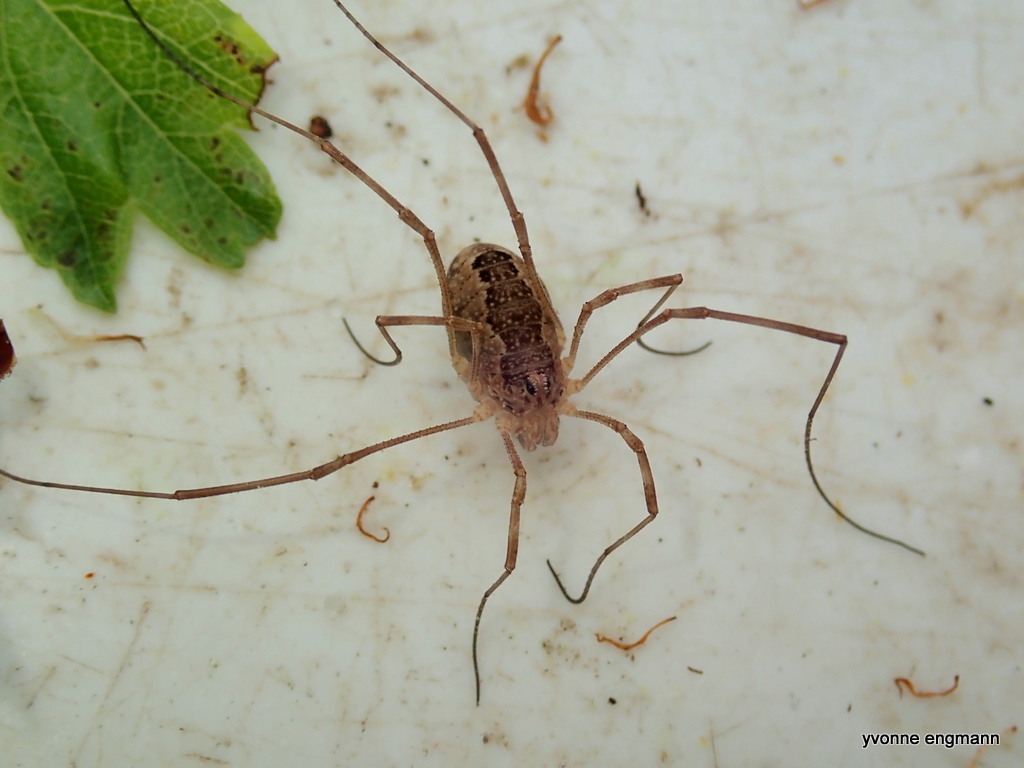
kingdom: Animalia
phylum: Arthropoda
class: Arachnida
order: Opiliones
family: Phalangiidae
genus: Rilaena
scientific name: Rilaena triangularis
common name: Spring harvestman
